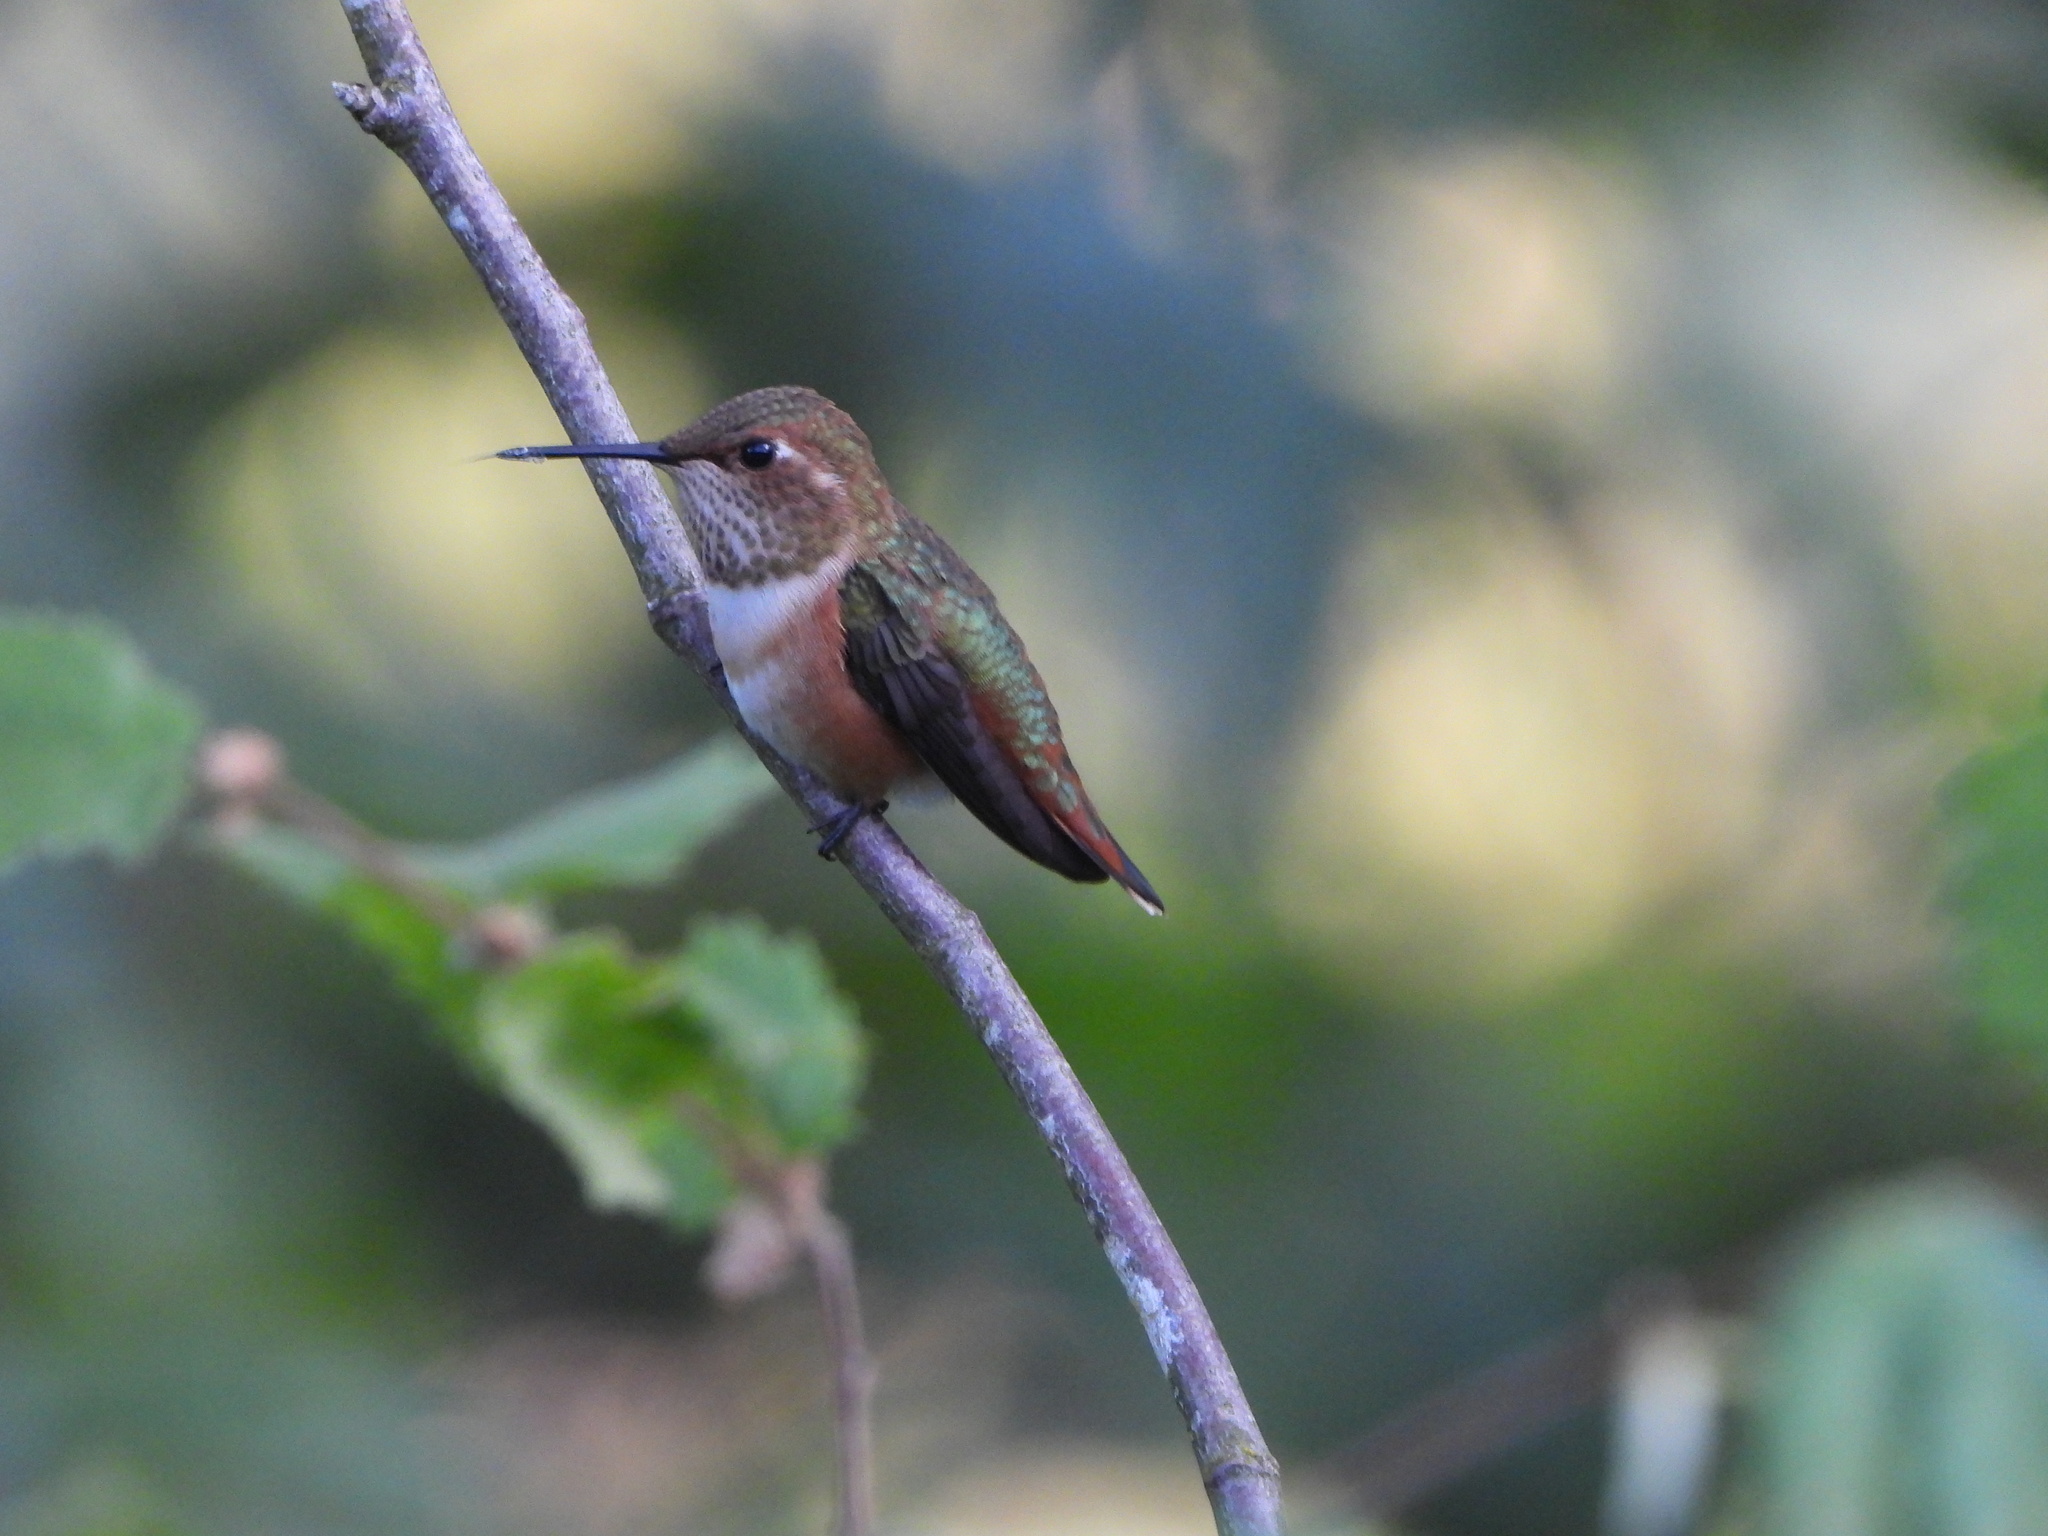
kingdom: Animalia
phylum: Chordata
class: Aves
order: Apodiformes
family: Trochilidae
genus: Selasphorus
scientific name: Selasphorus rufus
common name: Rufous hummingbird
